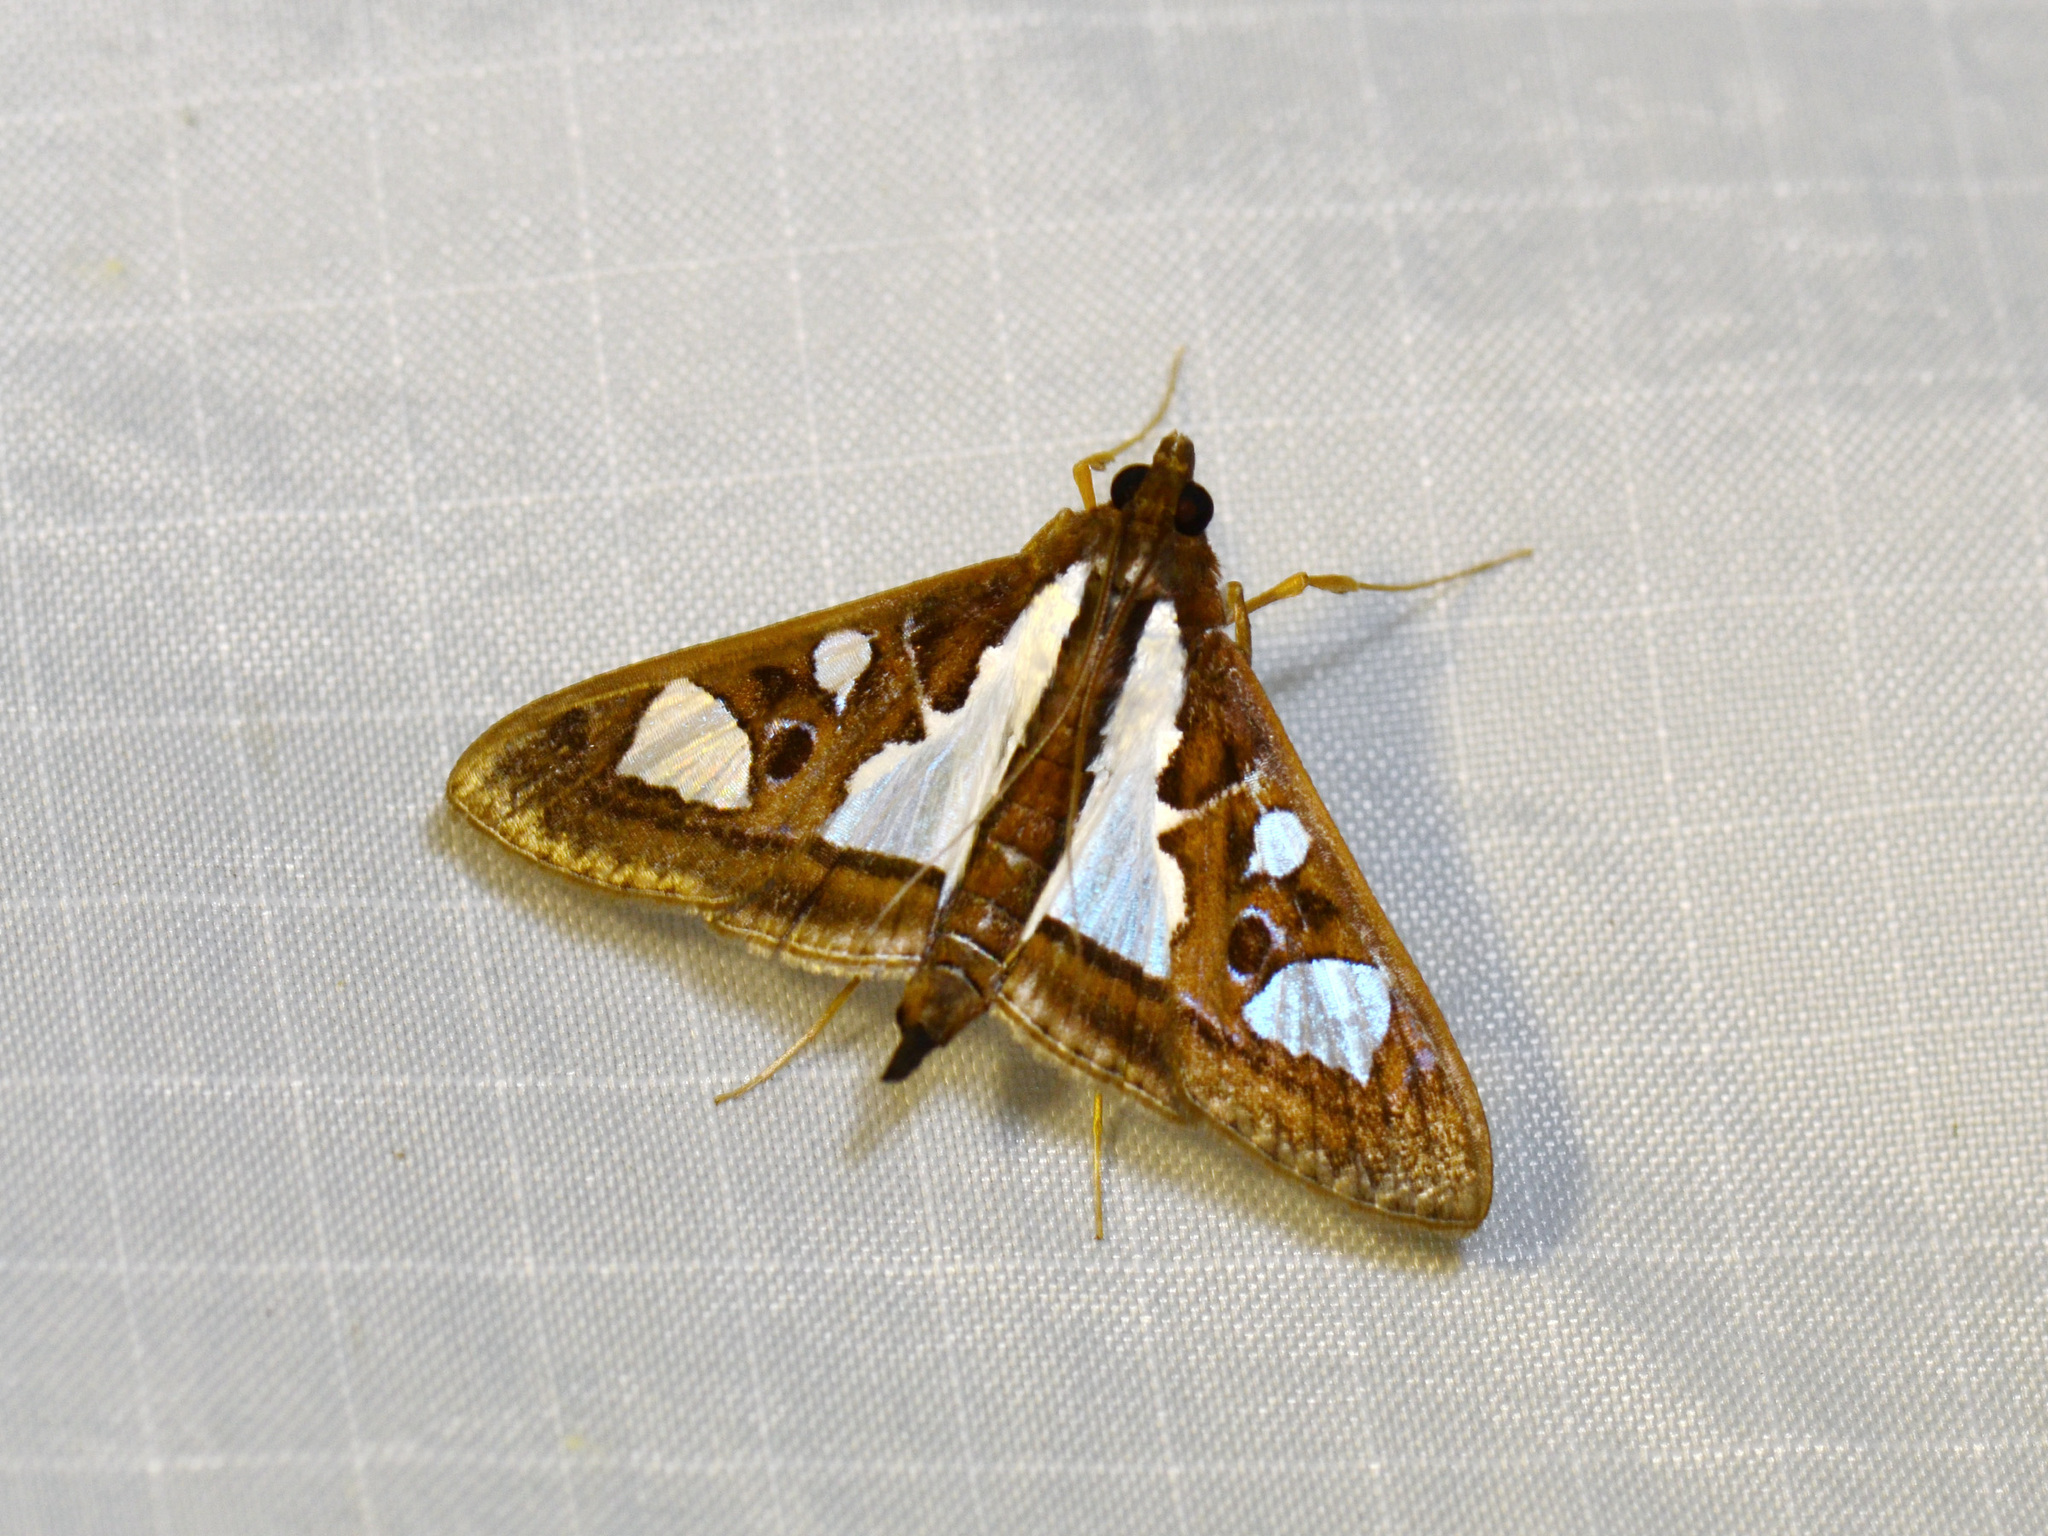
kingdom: Animalia
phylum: Arthropoda
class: Insecta
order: Lepidoptera
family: Crambidae
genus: Glyphodes
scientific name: Glyphodes bivitralis
